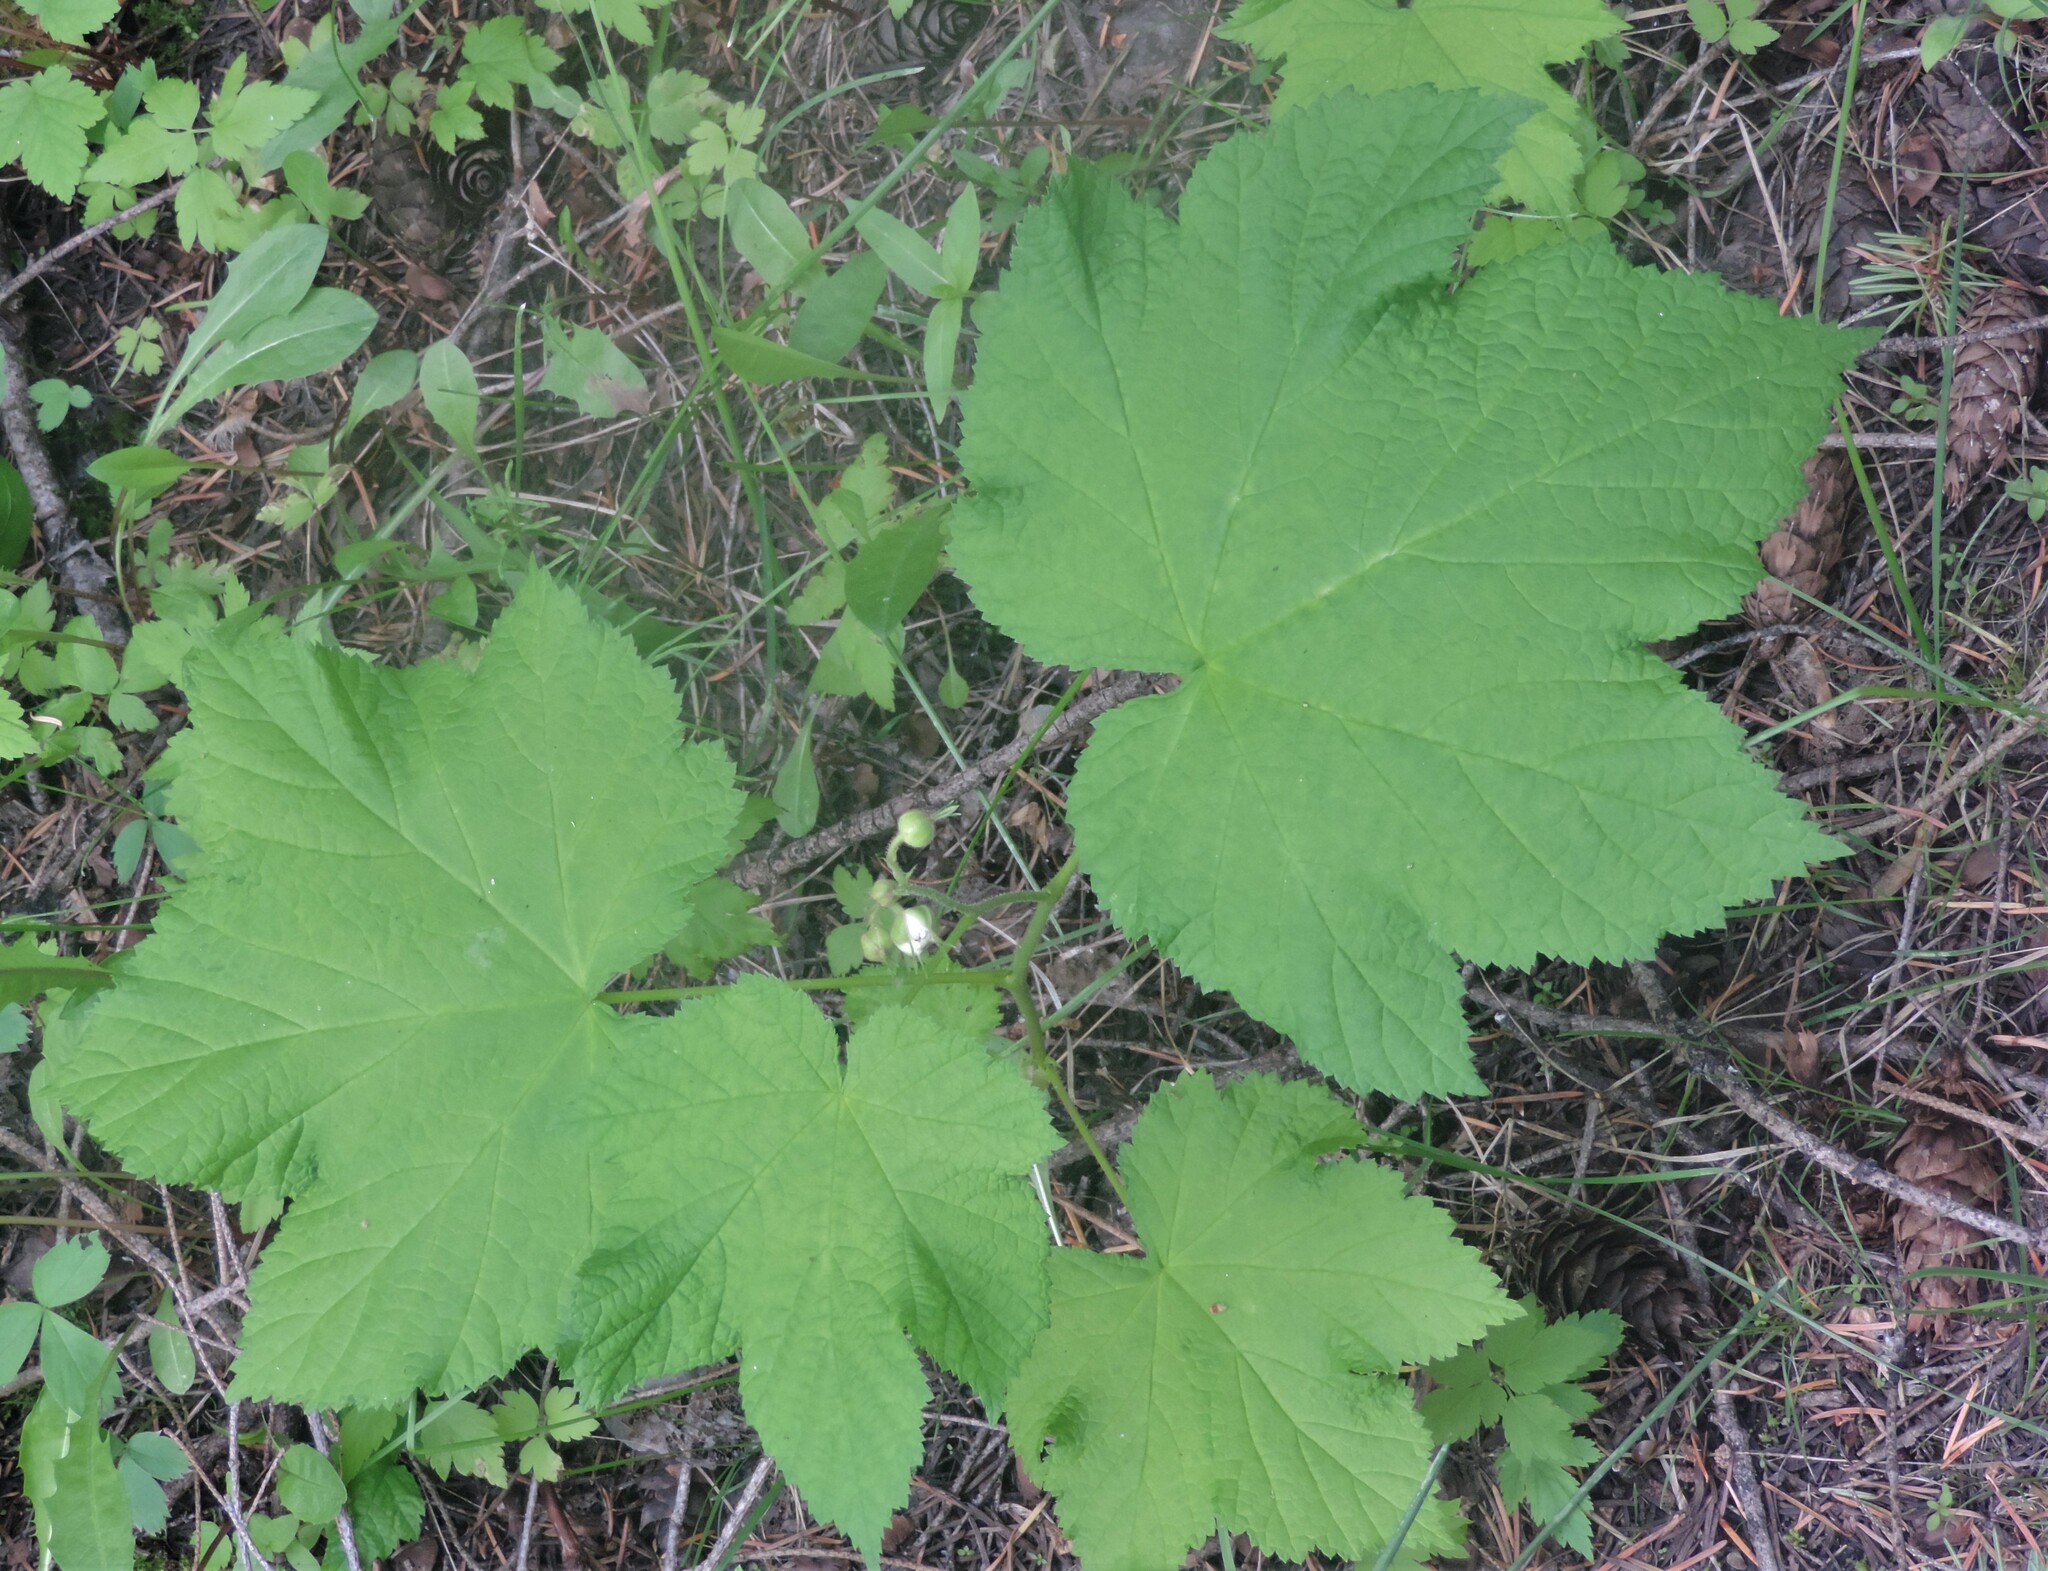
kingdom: Plantae
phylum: Tracheophyta
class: Magnoliopsida
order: Rosales
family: Rosaceae
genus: Rubus
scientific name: Rubus parviflorus
